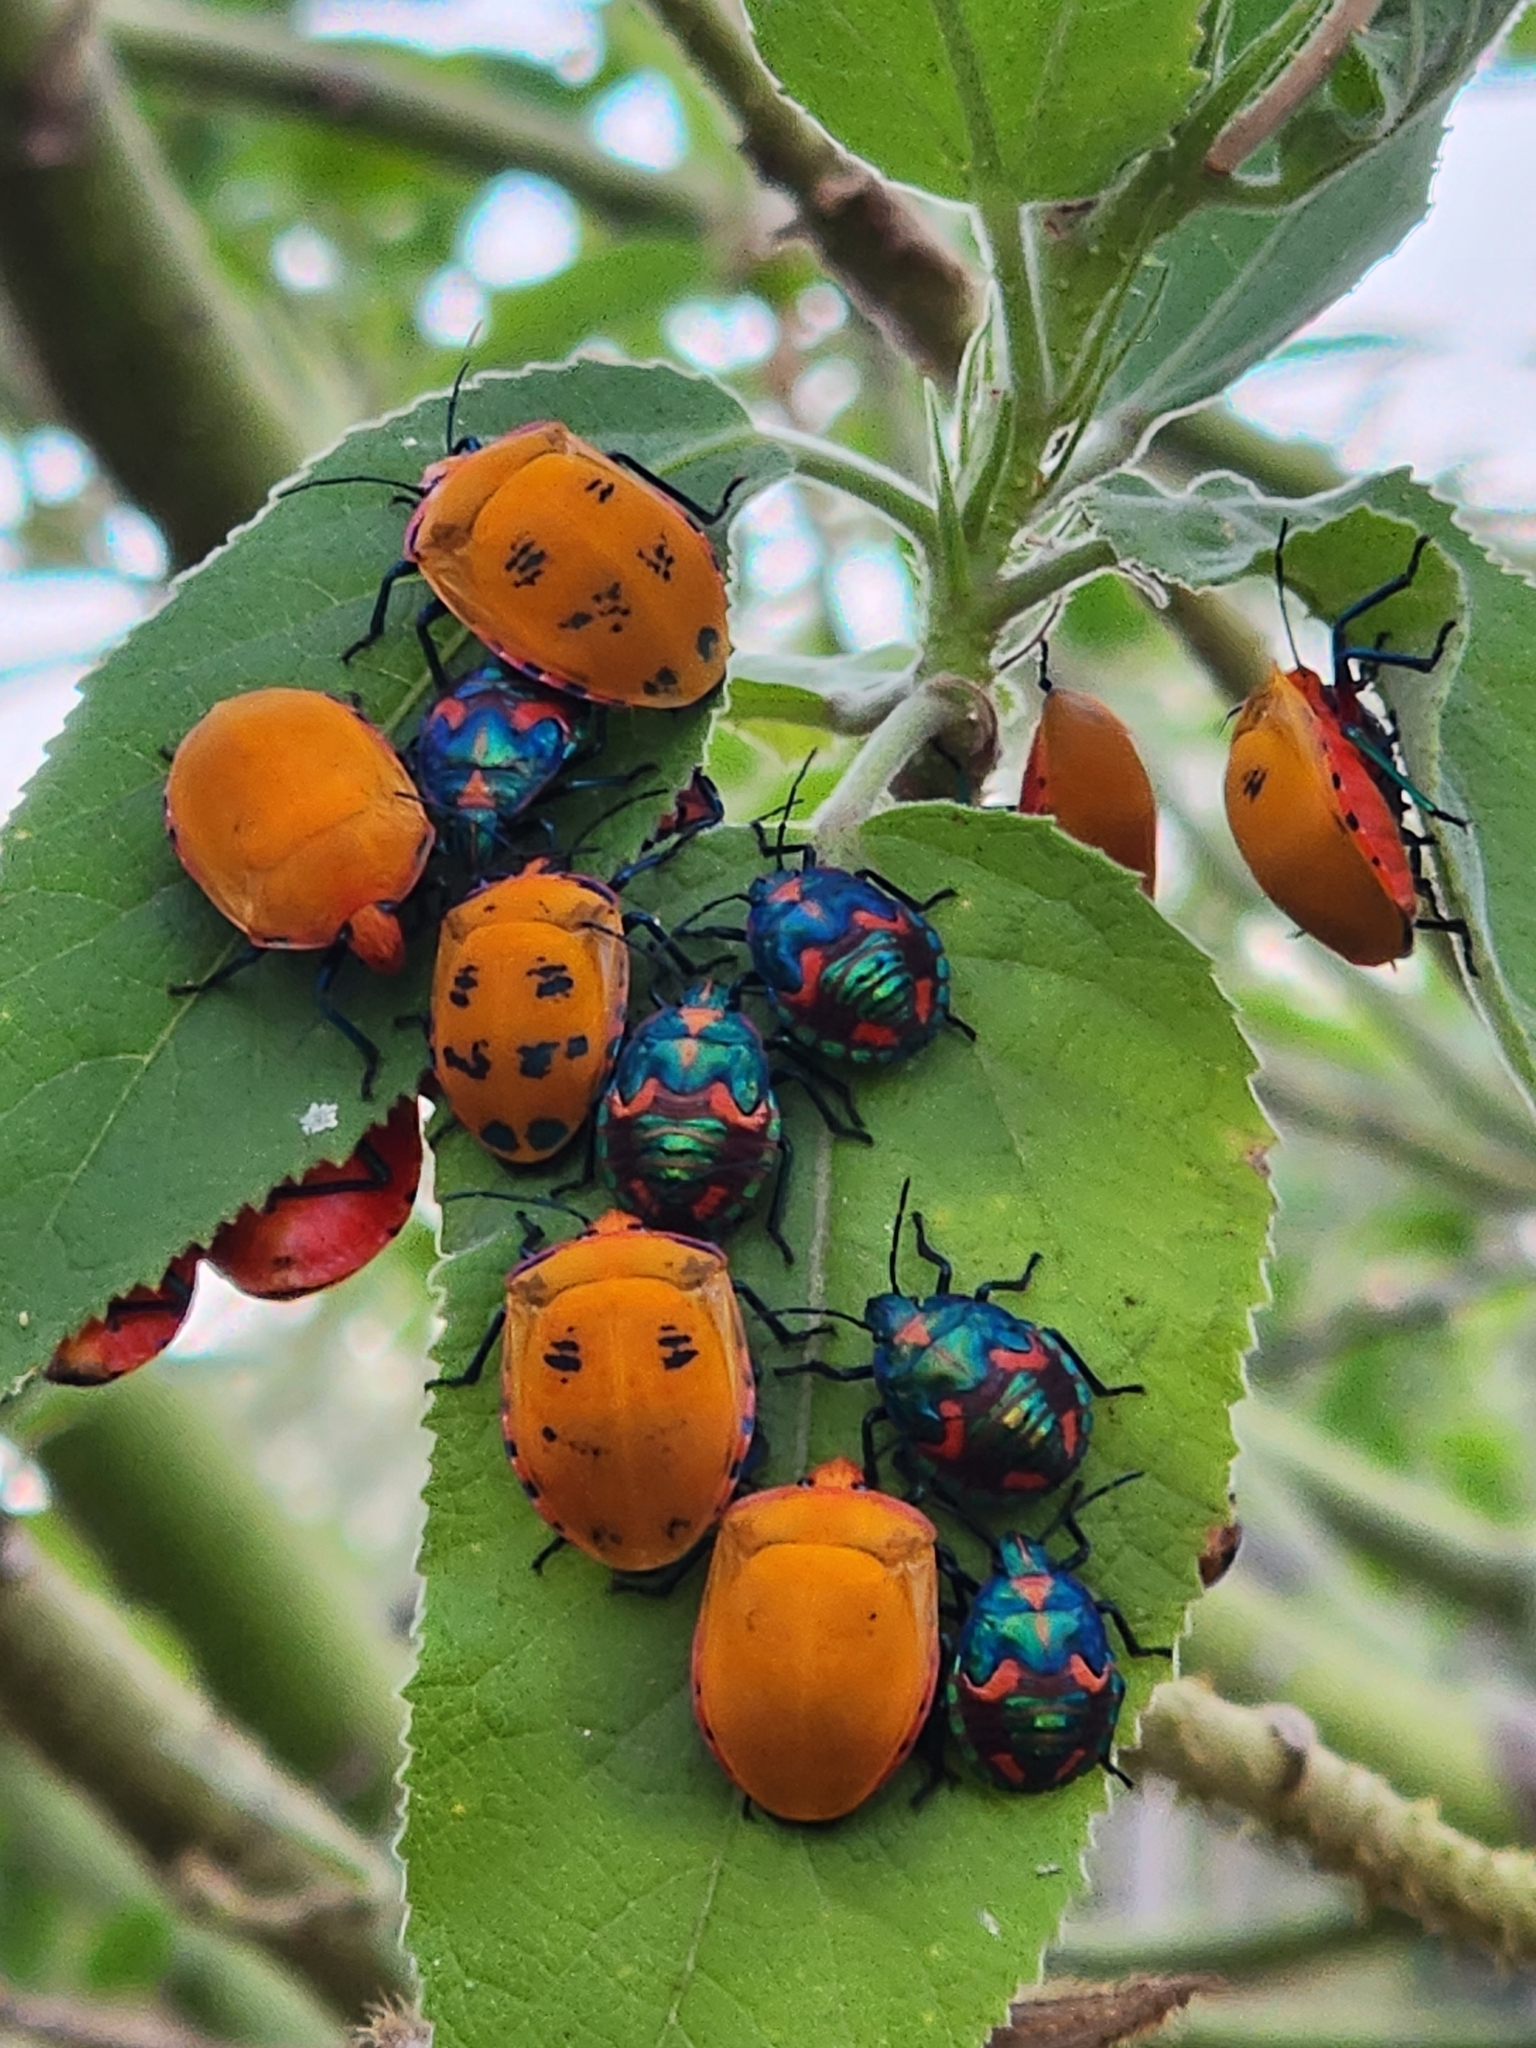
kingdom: Animalia
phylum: Arthropoda
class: Insecta
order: Hemiptera
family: Scutelleridae
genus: Tectocoris
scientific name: Tectocoris diophthalmus
